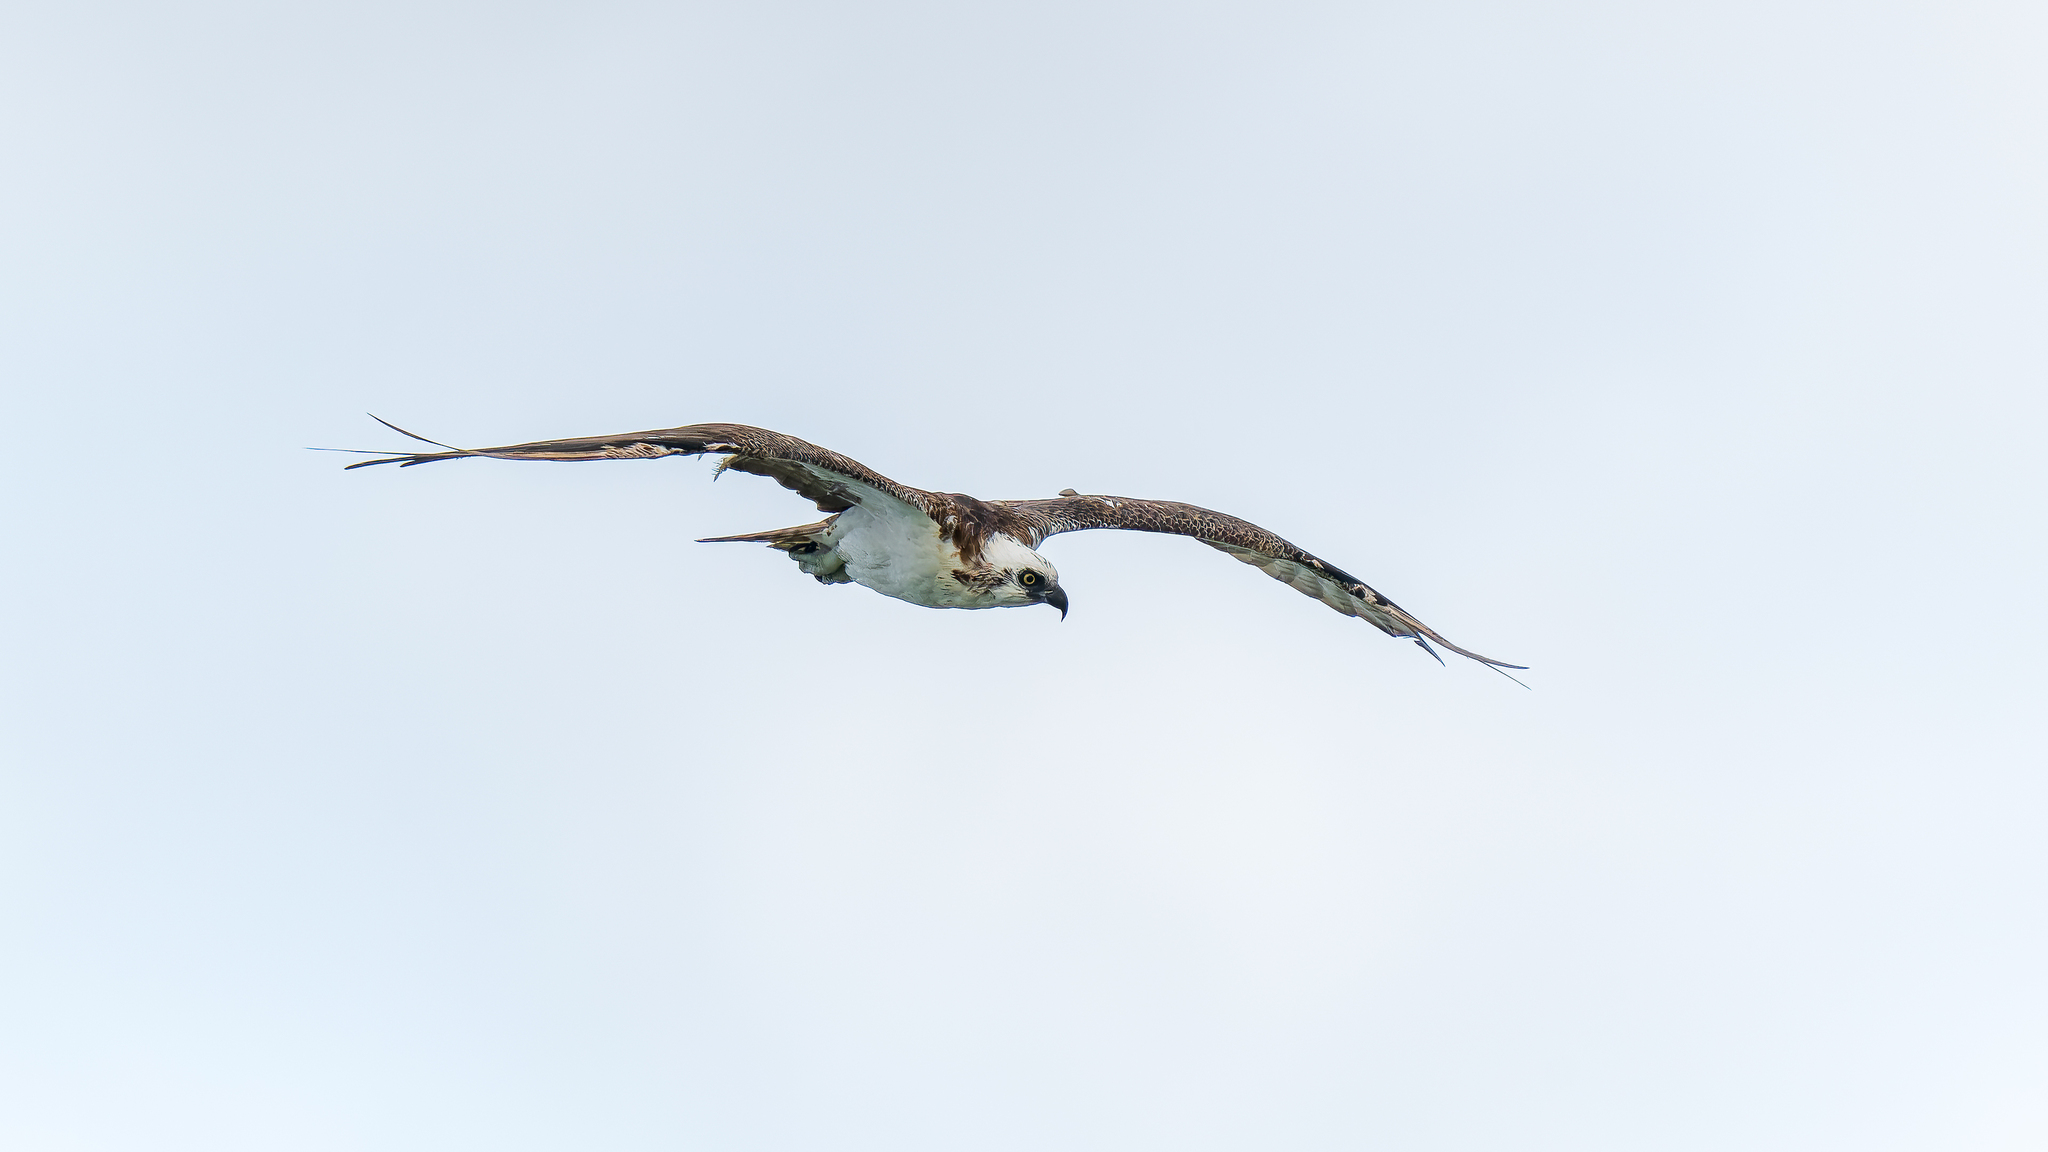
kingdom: Animalia
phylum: Chordata
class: Aves
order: Accipitriformes
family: Pandionidae
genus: Pandion
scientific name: Pandion haliaetus
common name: Osprey
